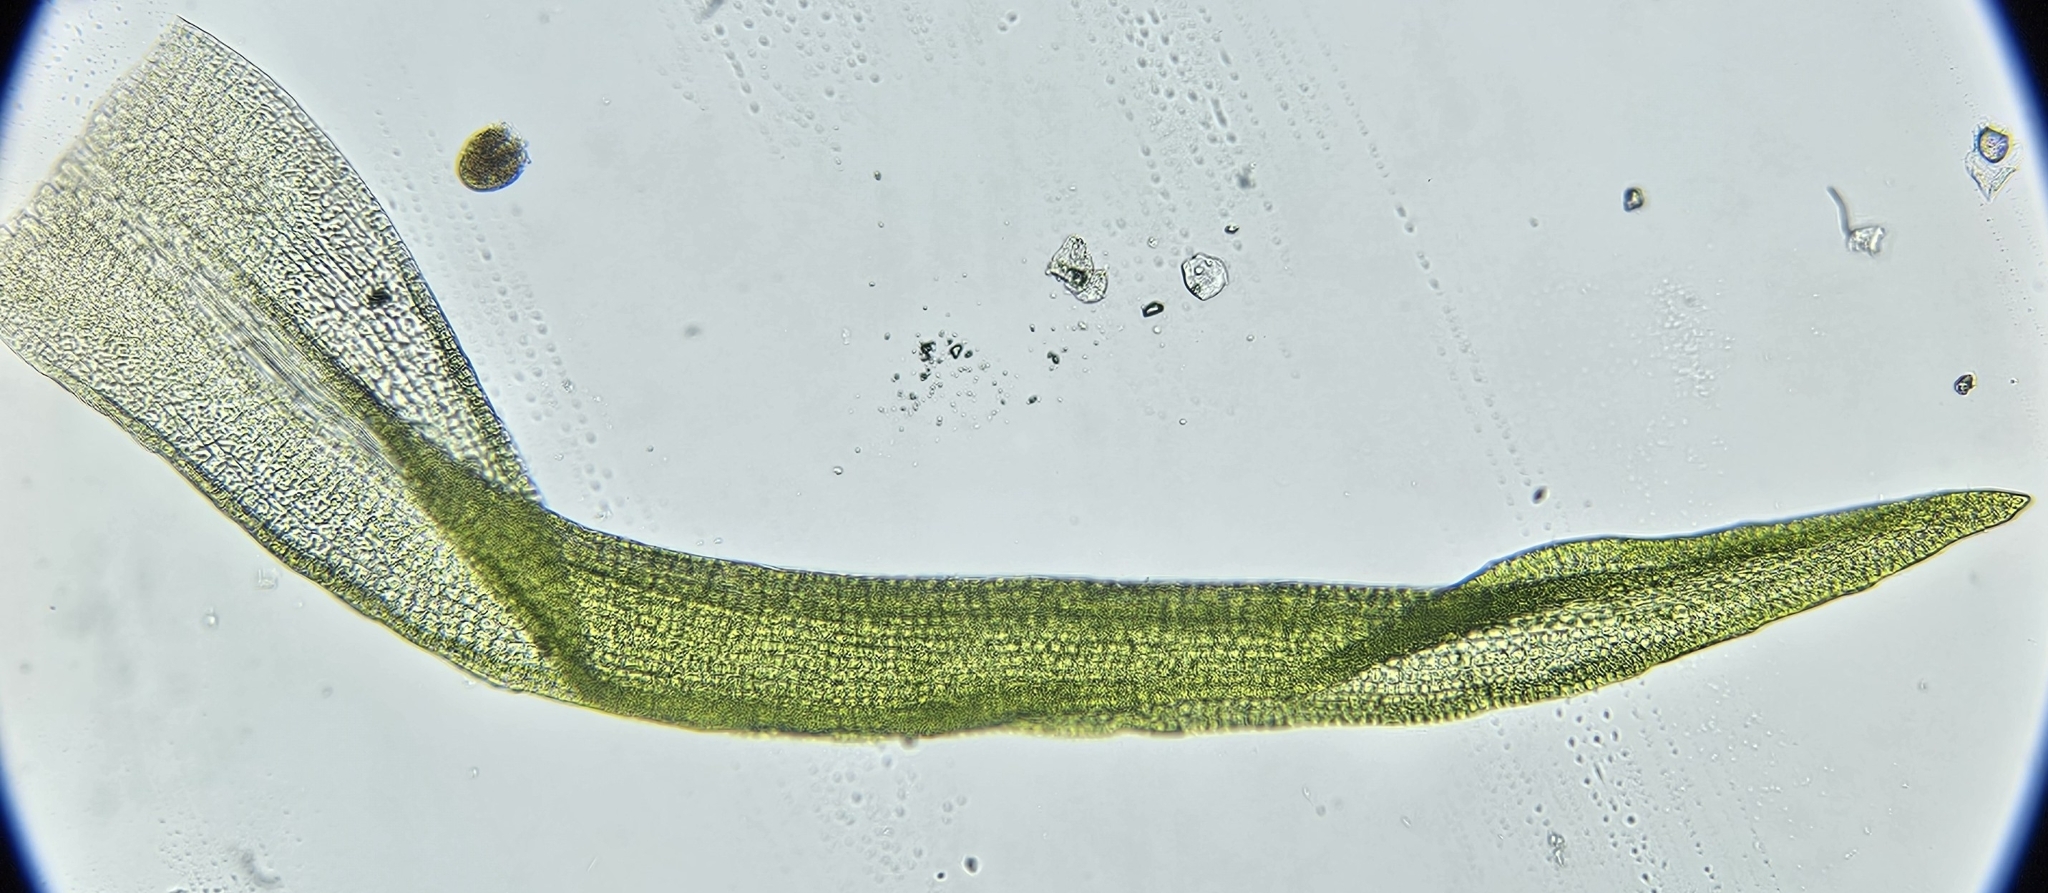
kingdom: Plantae
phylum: Bryophyta
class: Bryopsida
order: Dicranales
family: Rhabdoweisiaceae
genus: Dicranoweisia
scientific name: Dicranoweisia cirrata
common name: Common pincushion
